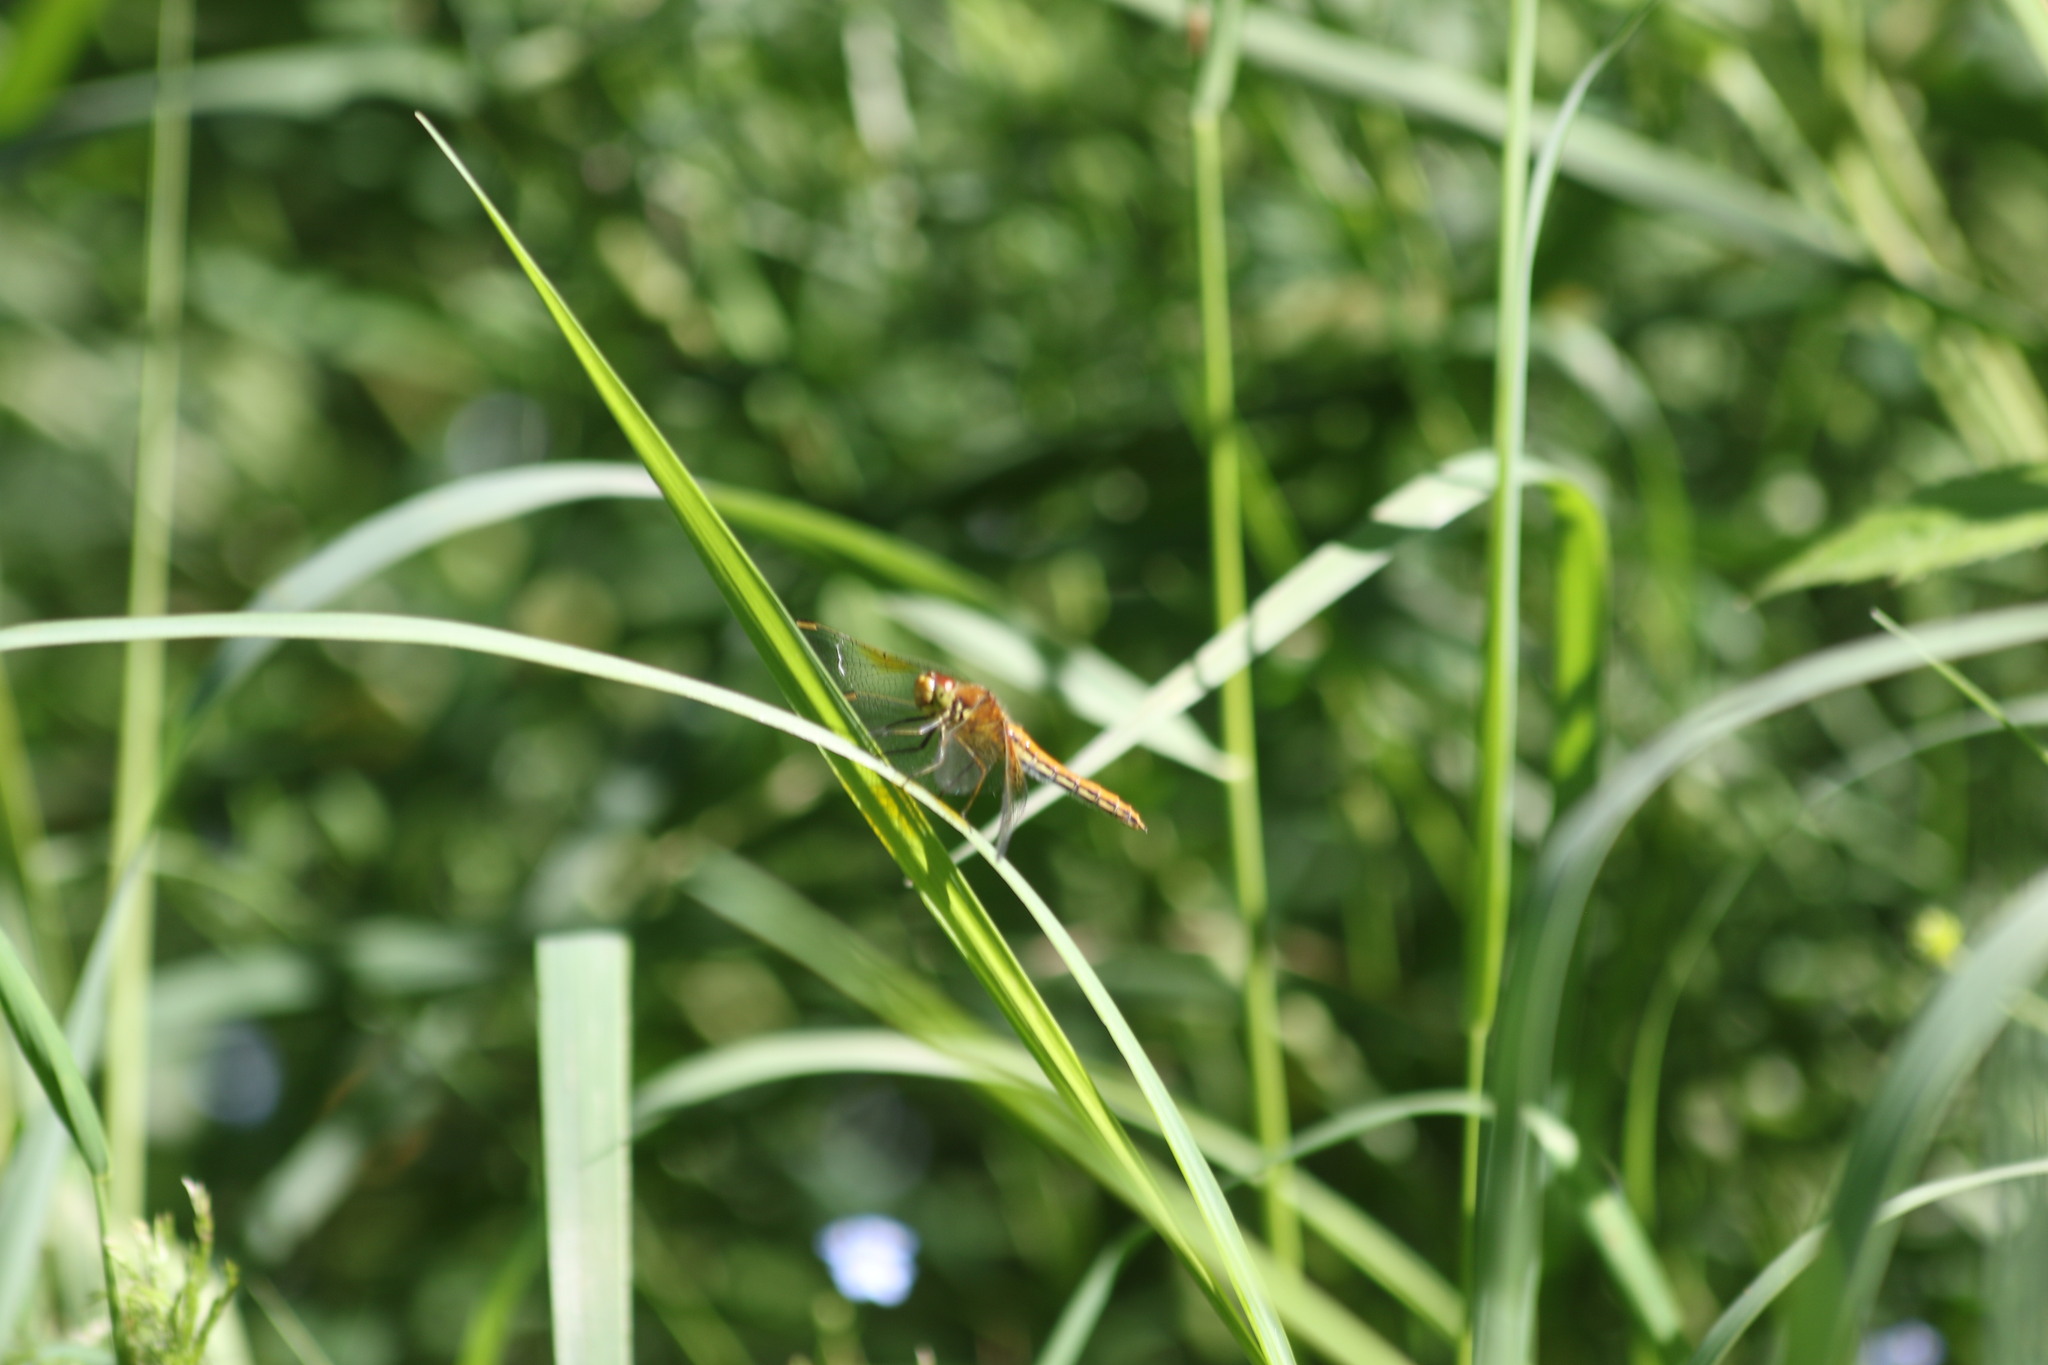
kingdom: Animalia
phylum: Arthropoda
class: Insecta
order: Odonata
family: Libellulidae
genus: Sympetrum
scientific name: Sympetrum flaveolum
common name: Yellow-winged darter
